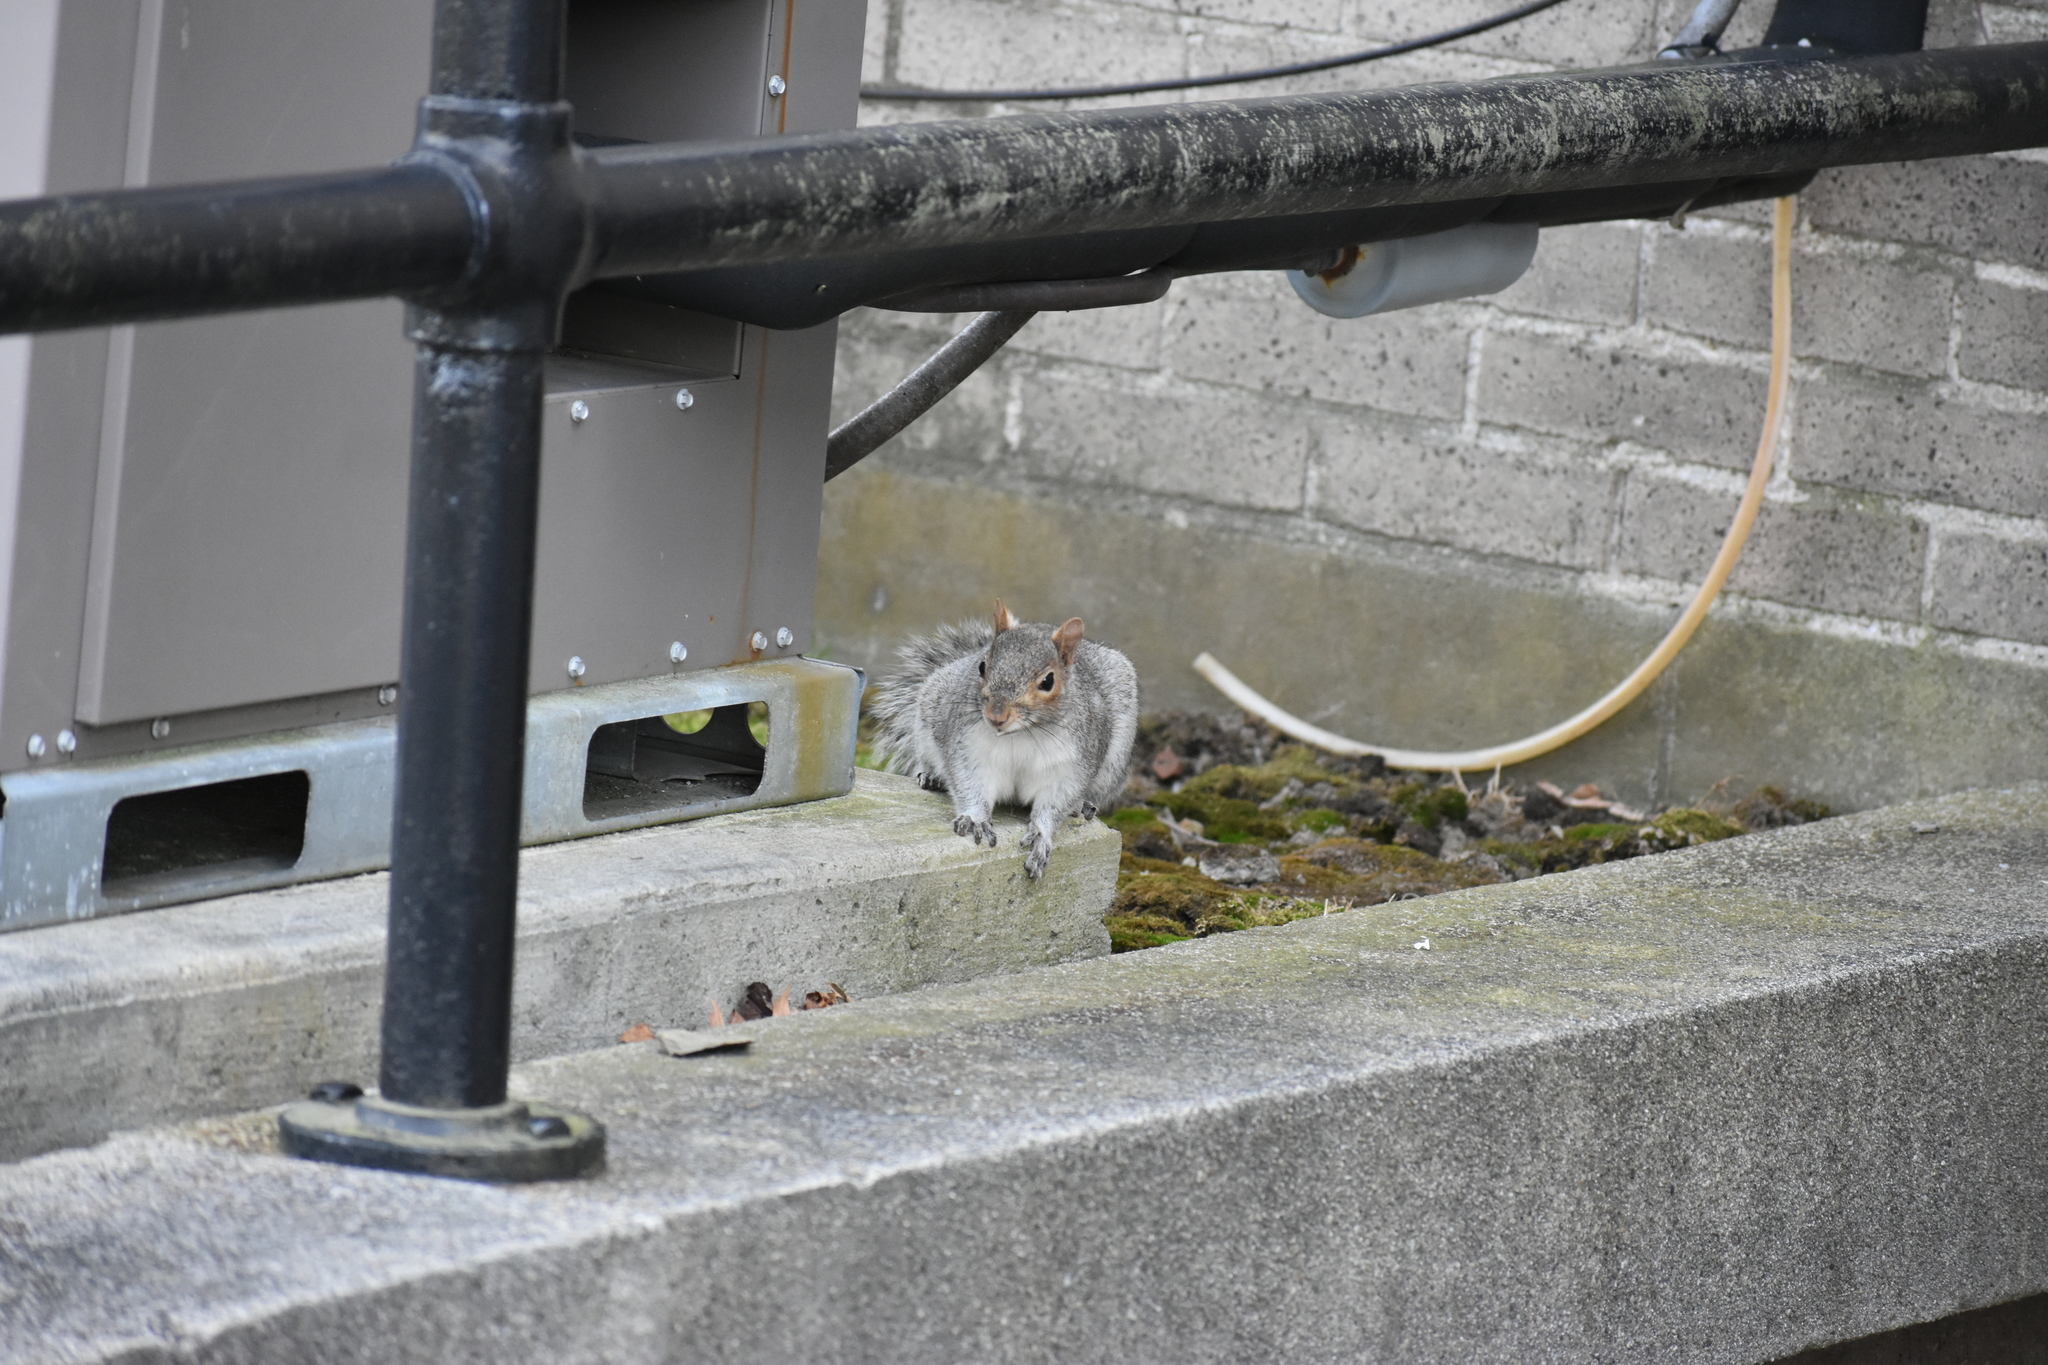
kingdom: Animalia
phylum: Chordata
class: Mammalia
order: Rodentia
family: Sciuridae
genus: Sciurus
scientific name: Sciurus carolinensis
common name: Eastern gray squirrel
